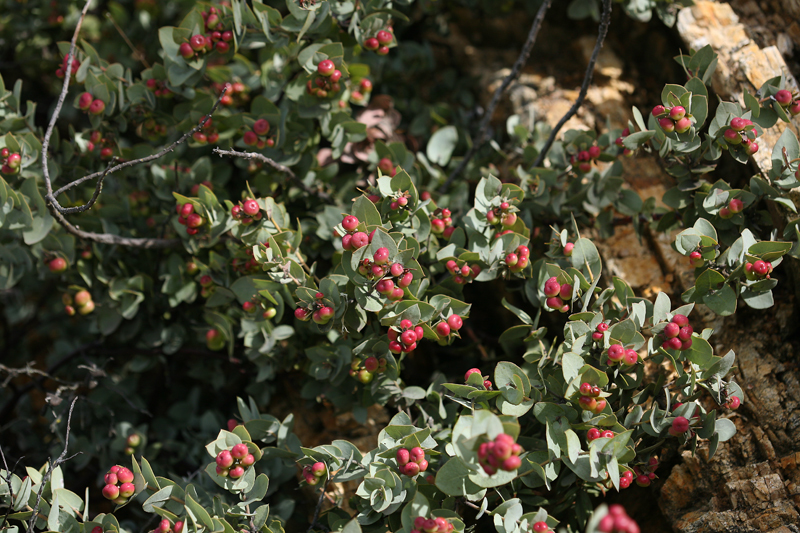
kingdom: Plantae
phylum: Tracheophyta
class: Magnoliopsida
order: Ericales
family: Ericaceae
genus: Arctostaphylos
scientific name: Arctostaphylos luciana
